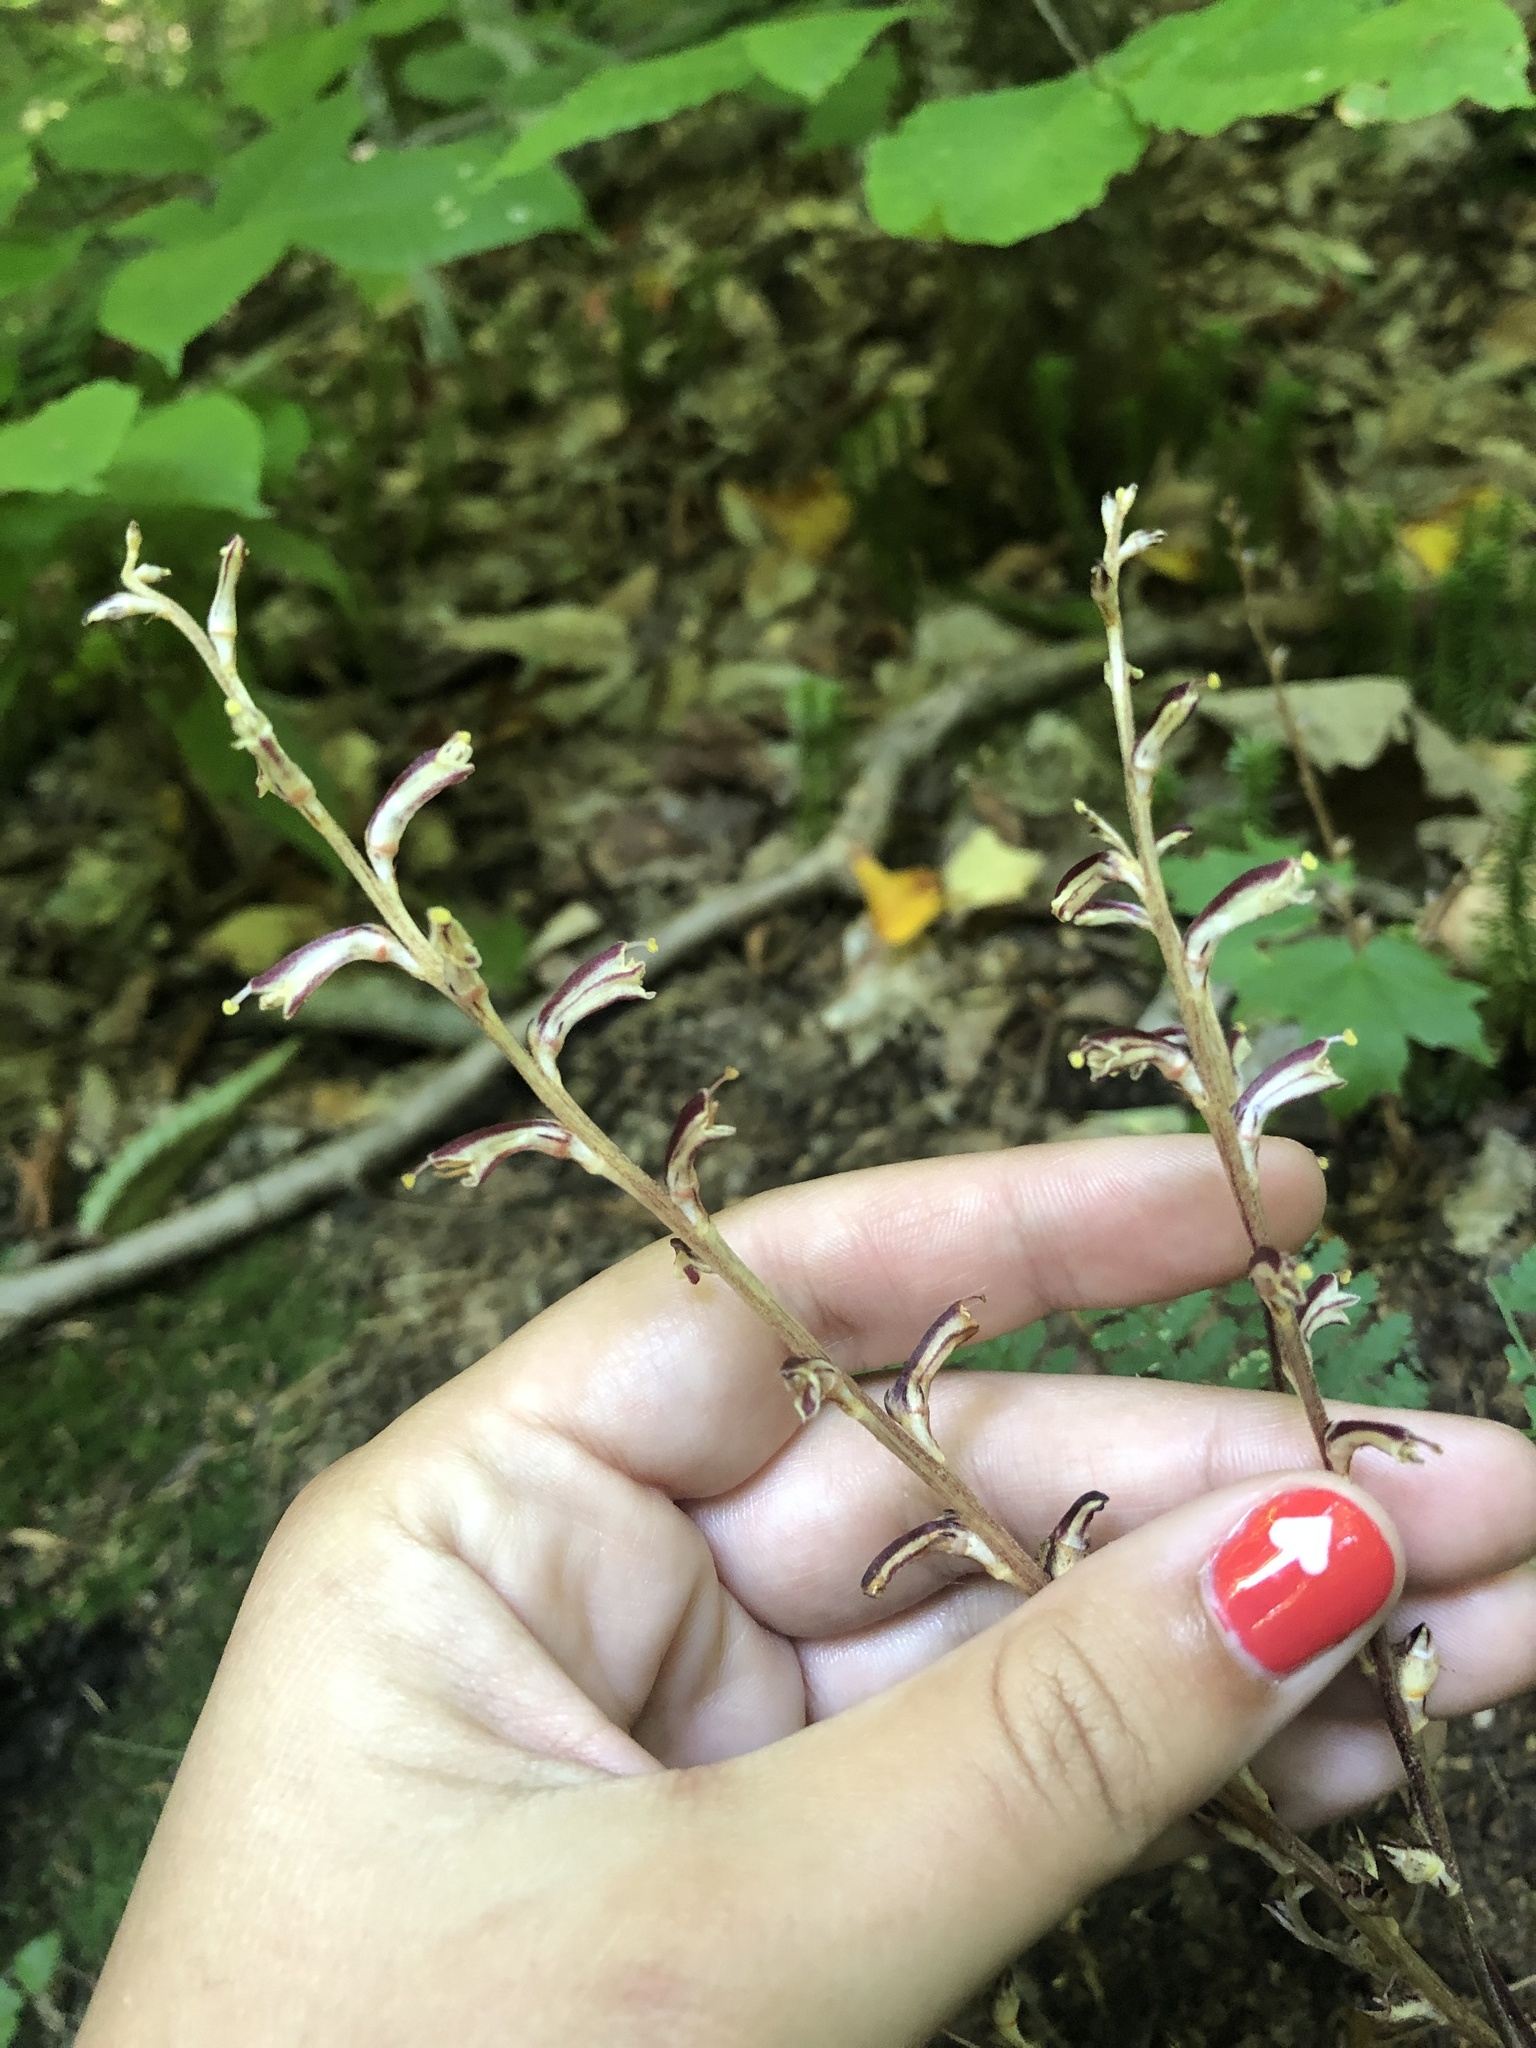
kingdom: Plantae
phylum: Tracheophyta
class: Magnoliopsida
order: Lamiales
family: Orobanchaceae
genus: Epifagus
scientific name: Epifagus virginiana
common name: Beechdrops
